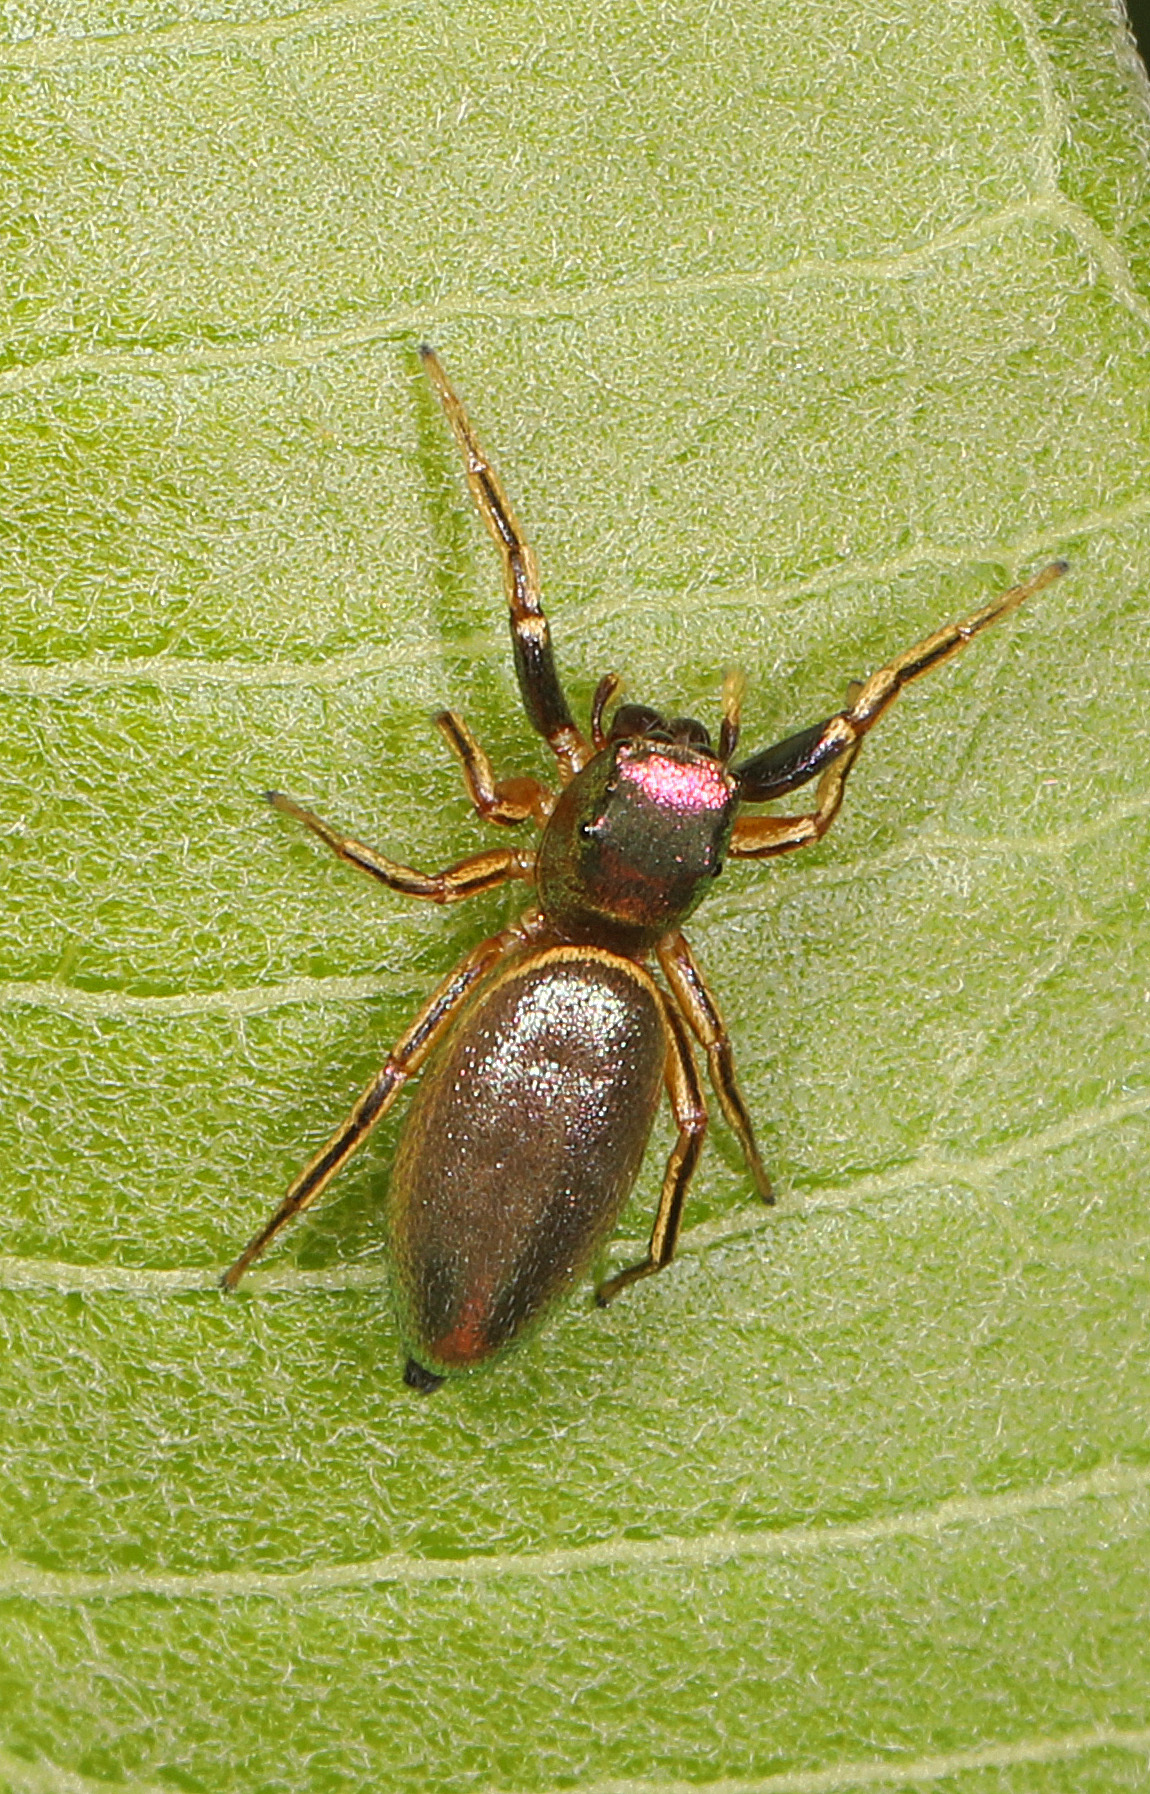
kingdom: Animalia
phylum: Arthropoda
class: Arachnida
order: Araneae
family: Salticidae
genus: Tutelina
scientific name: Tutelina elegans
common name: Thin-spined jumping spider
